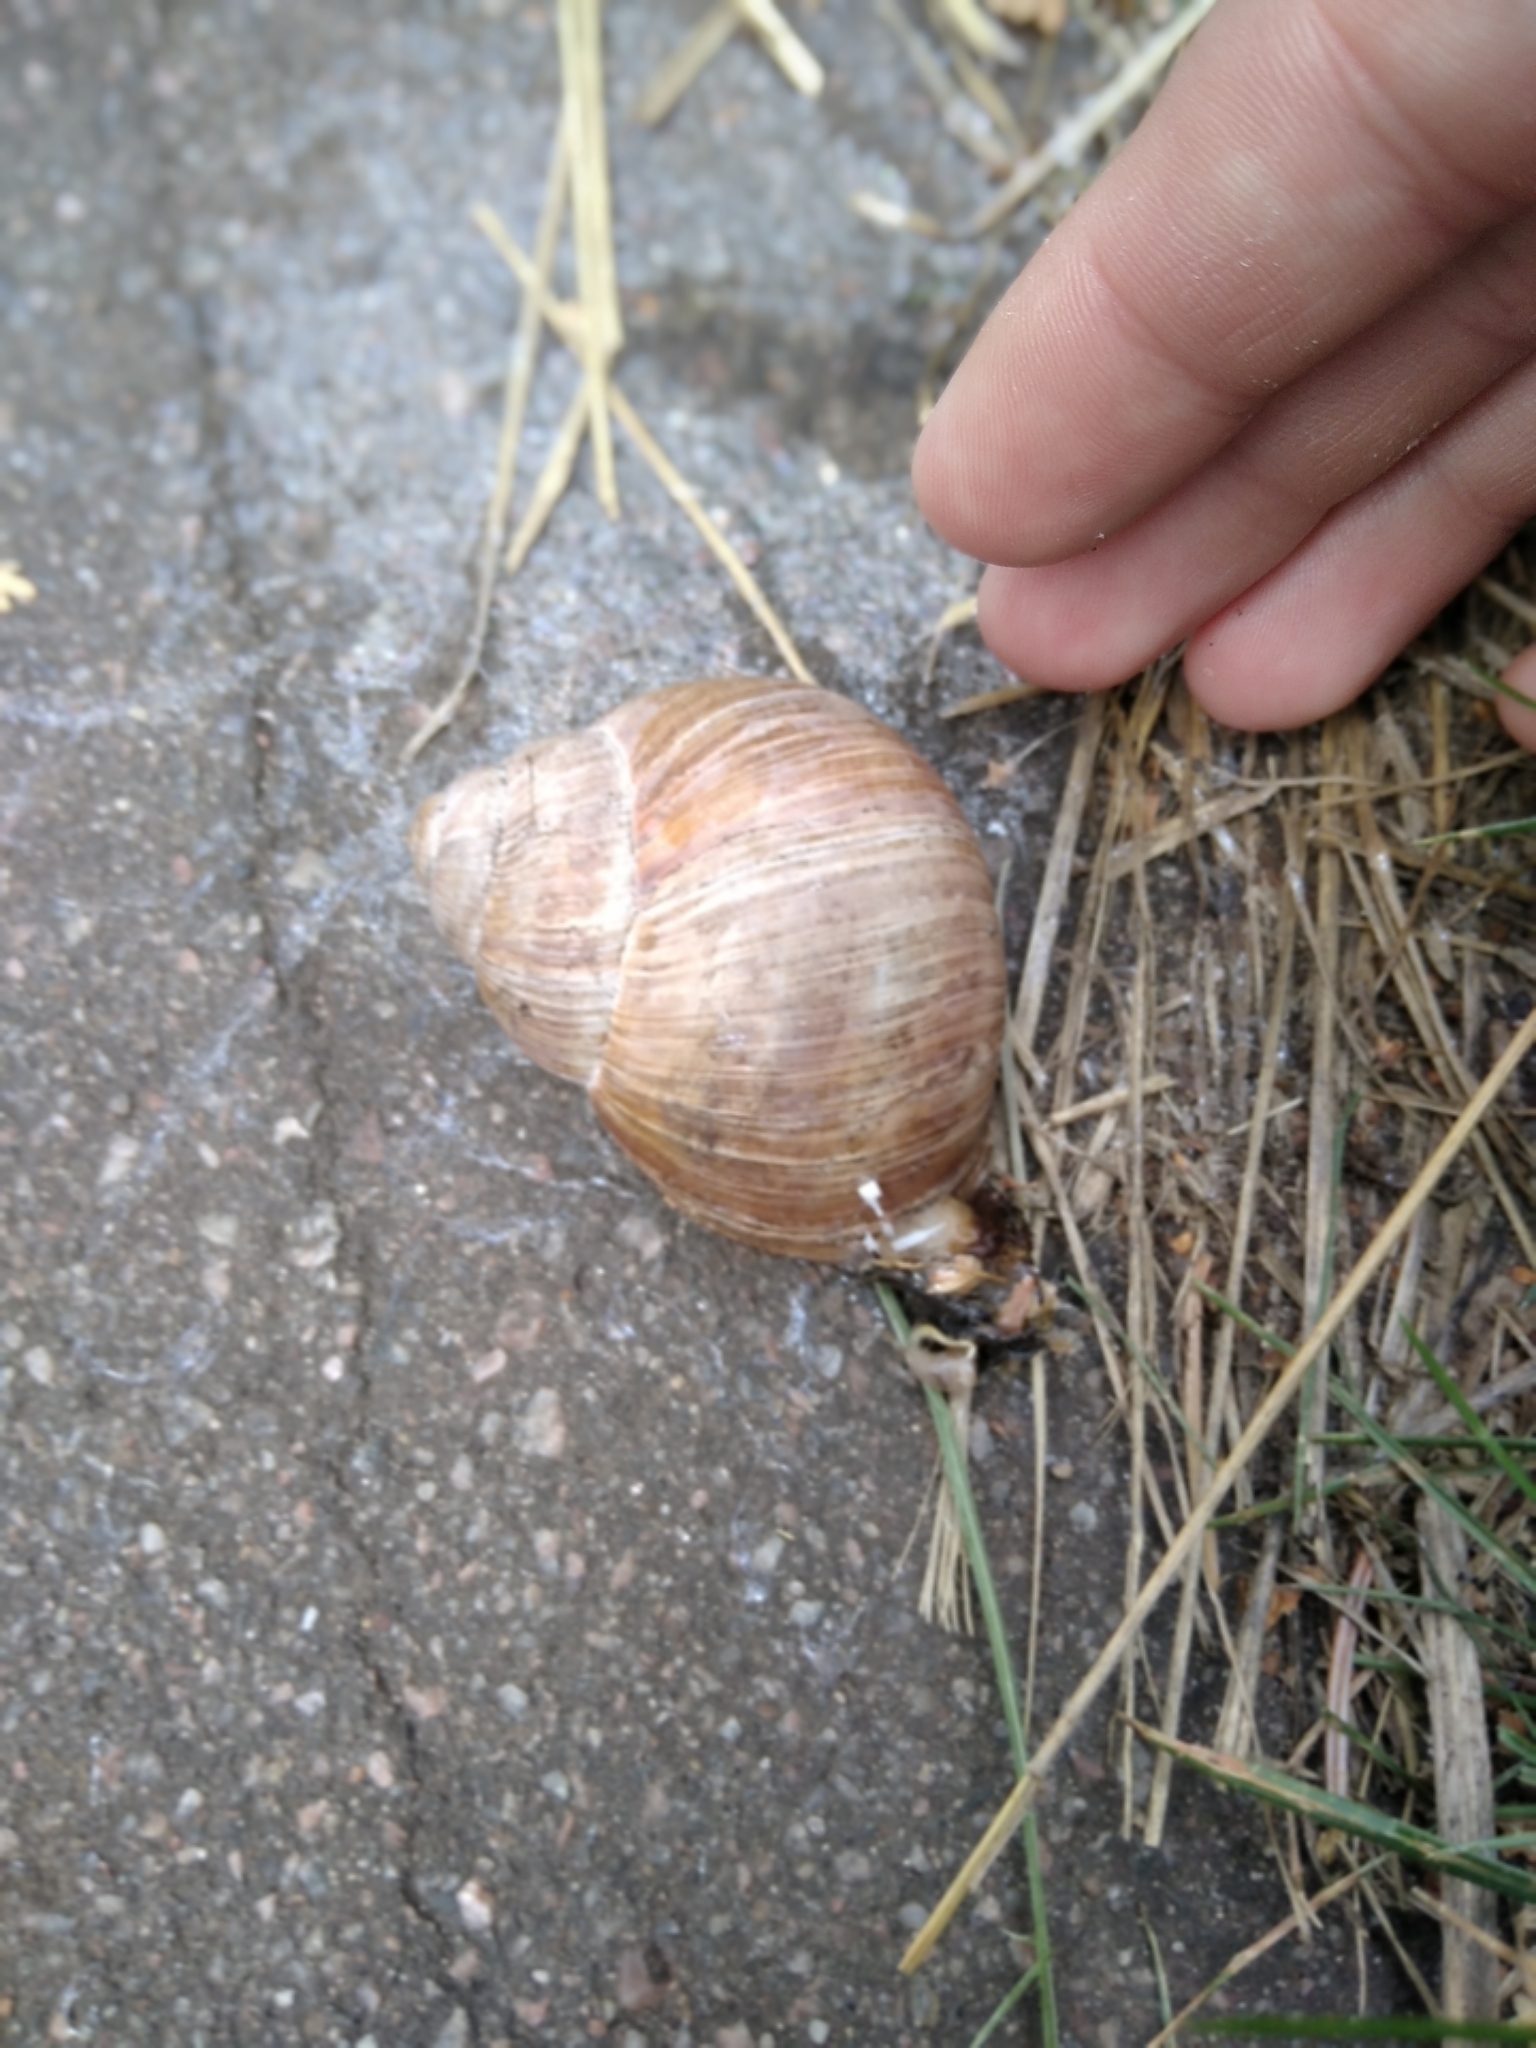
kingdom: Animalia
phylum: Mollusca
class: Gastropoda
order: Stylommatophora
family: Helicidae
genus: Helix
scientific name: Helix pomatia
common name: Roman snail
